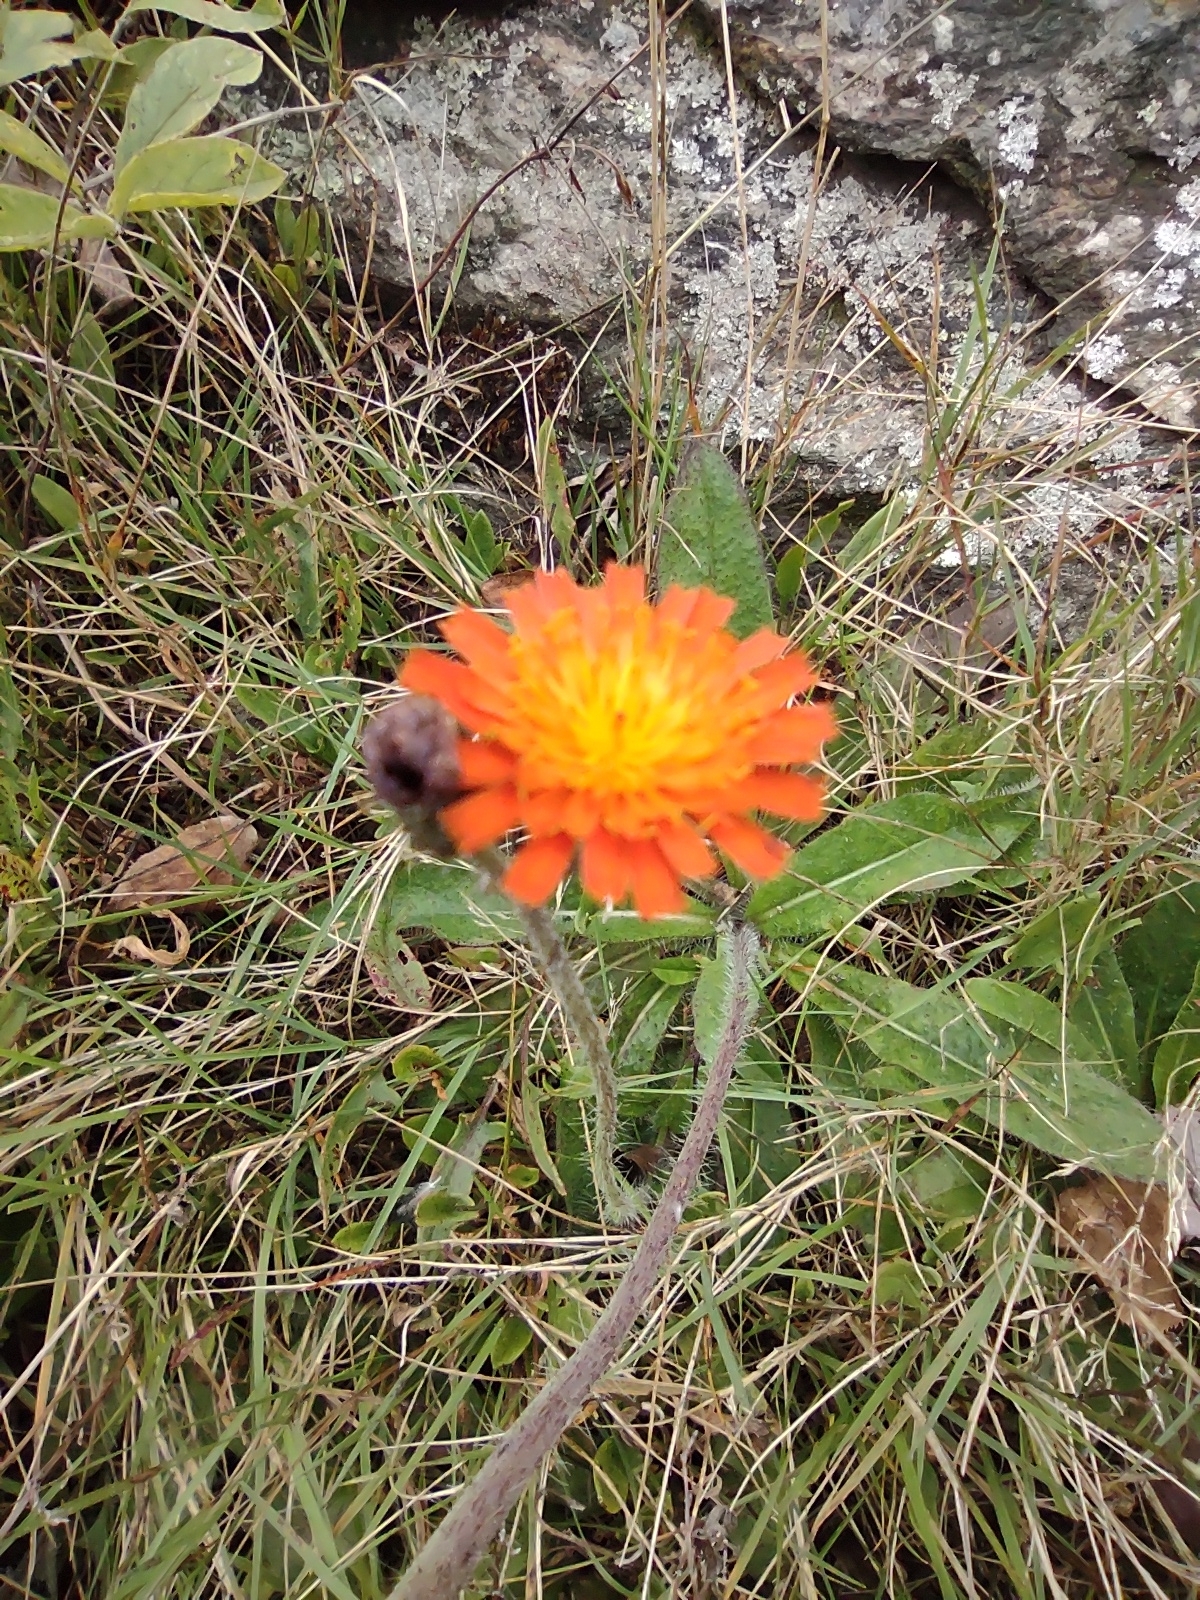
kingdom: Plantae
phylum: Tracheophyta
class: Magnoliopsida
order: Asterales
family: Asteraceae
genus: Pilosella
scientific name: Pilosella aurantiaca
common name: Fox-and-cubs
